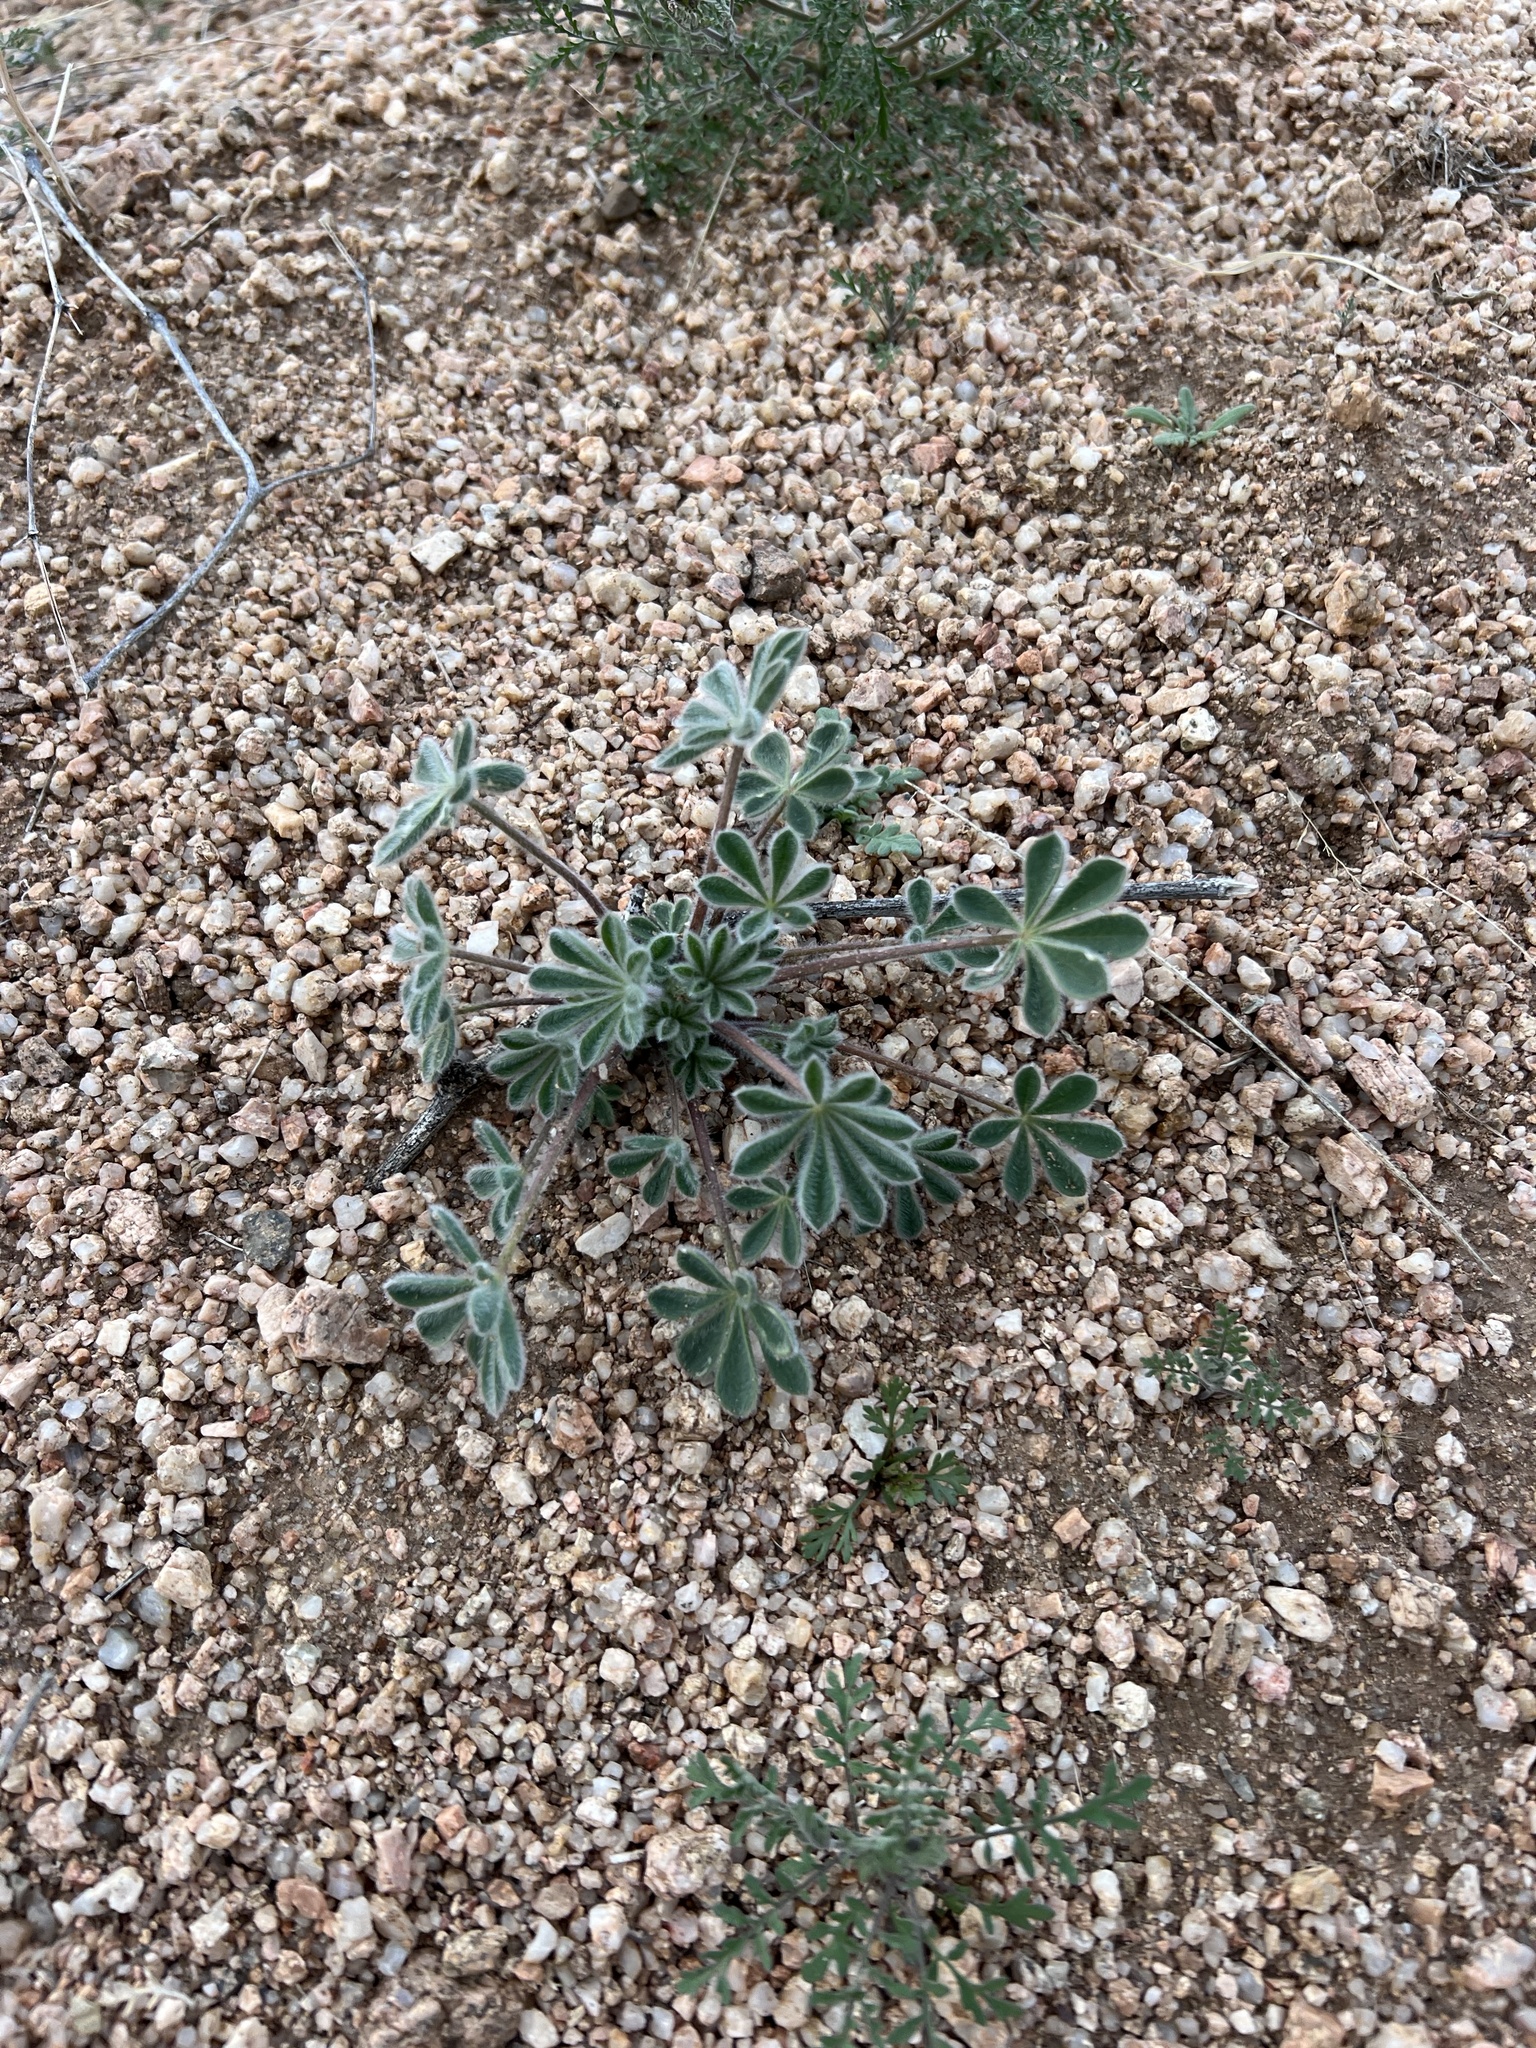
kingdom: Plantae
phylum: Tracheophyta
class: Magnoliopsida
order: Fabales
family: Fabaceae
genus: Lupinus
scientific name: Lupinus concinnus
